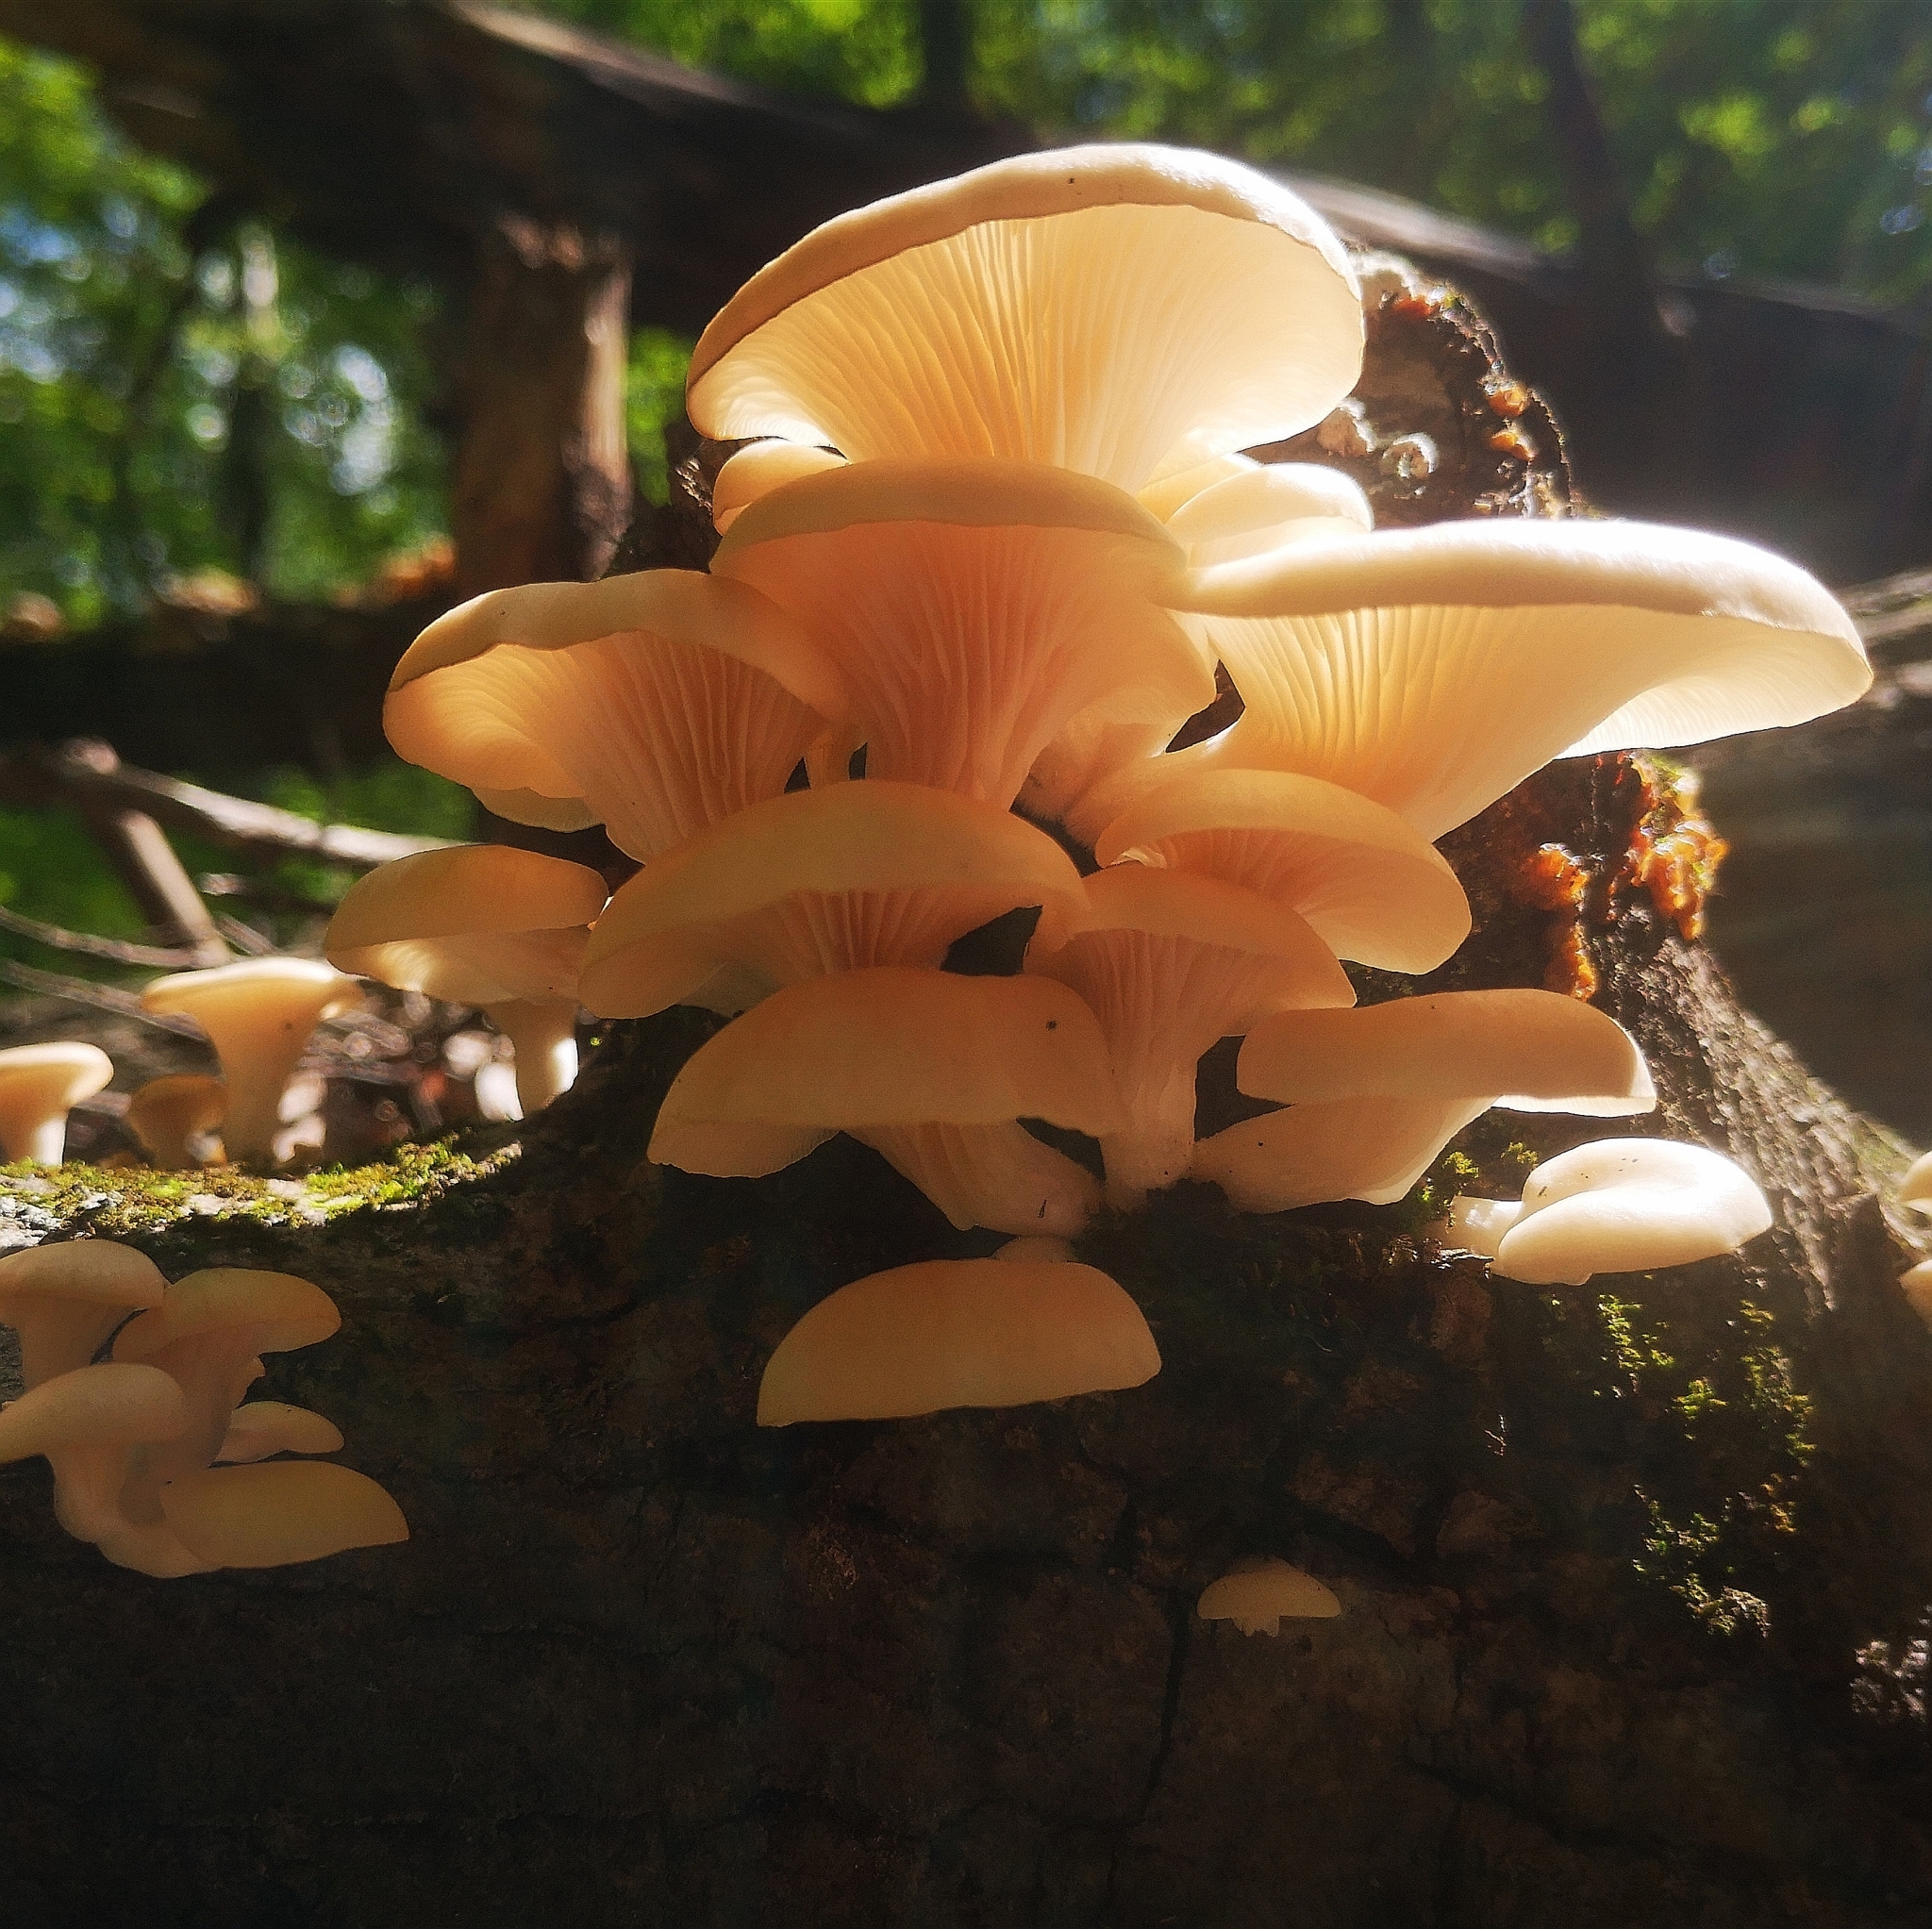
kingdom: Fungi
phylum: Basidiomycota
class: Agaricomycetes
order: Agaricales
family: Pleurotaceae
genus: Pleurotus
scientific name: Pleurotus pulmonarius
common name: Pale oyster
